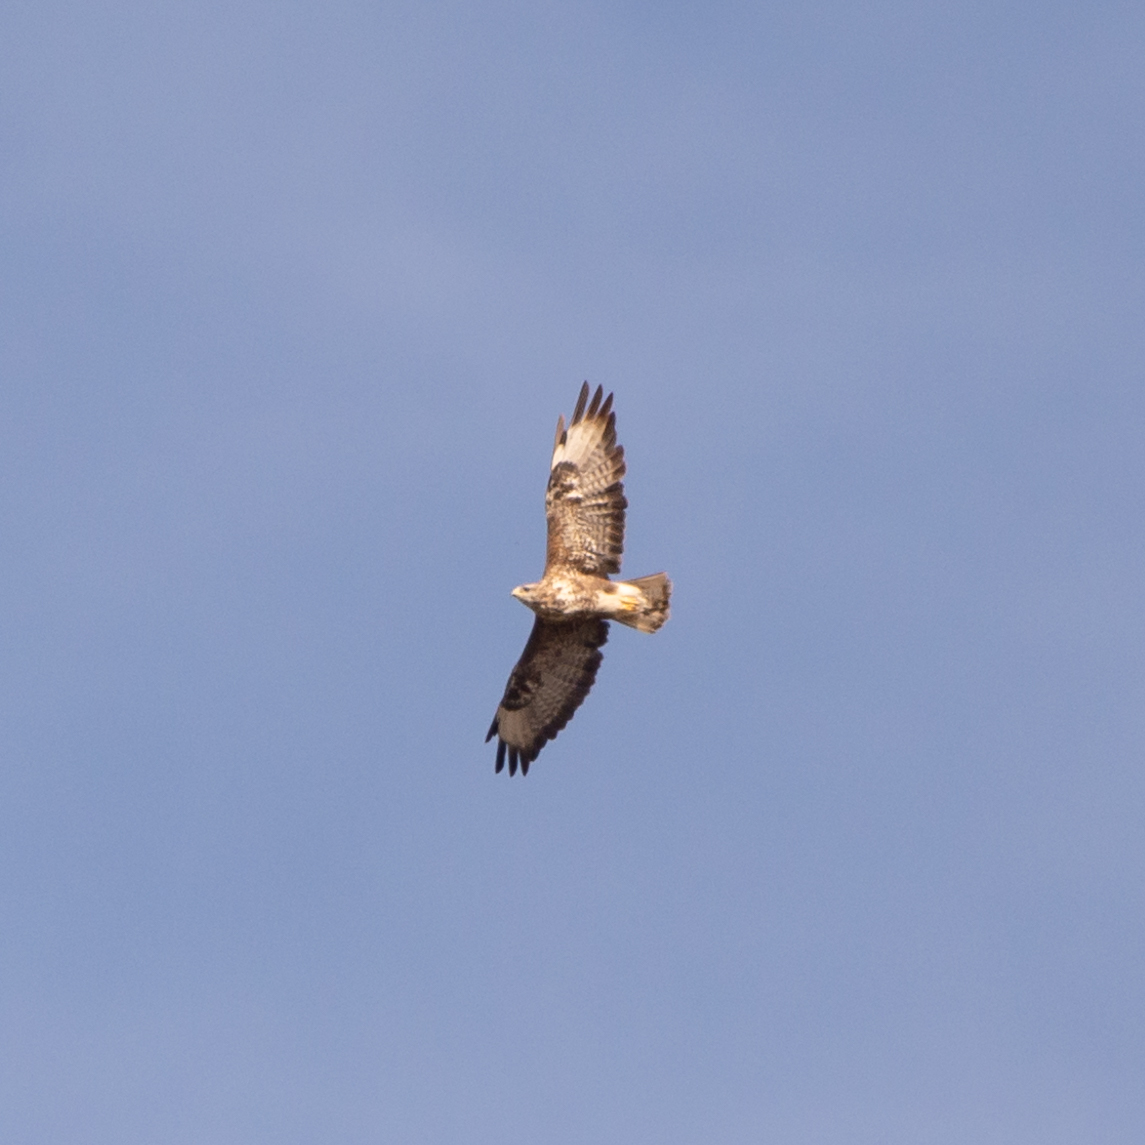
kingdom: Animalia
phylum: Chordata
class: Aves
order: Accipitriformes
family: Accipitridae
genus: Buteo
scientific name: Buteo buteo
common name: Common buzzard
